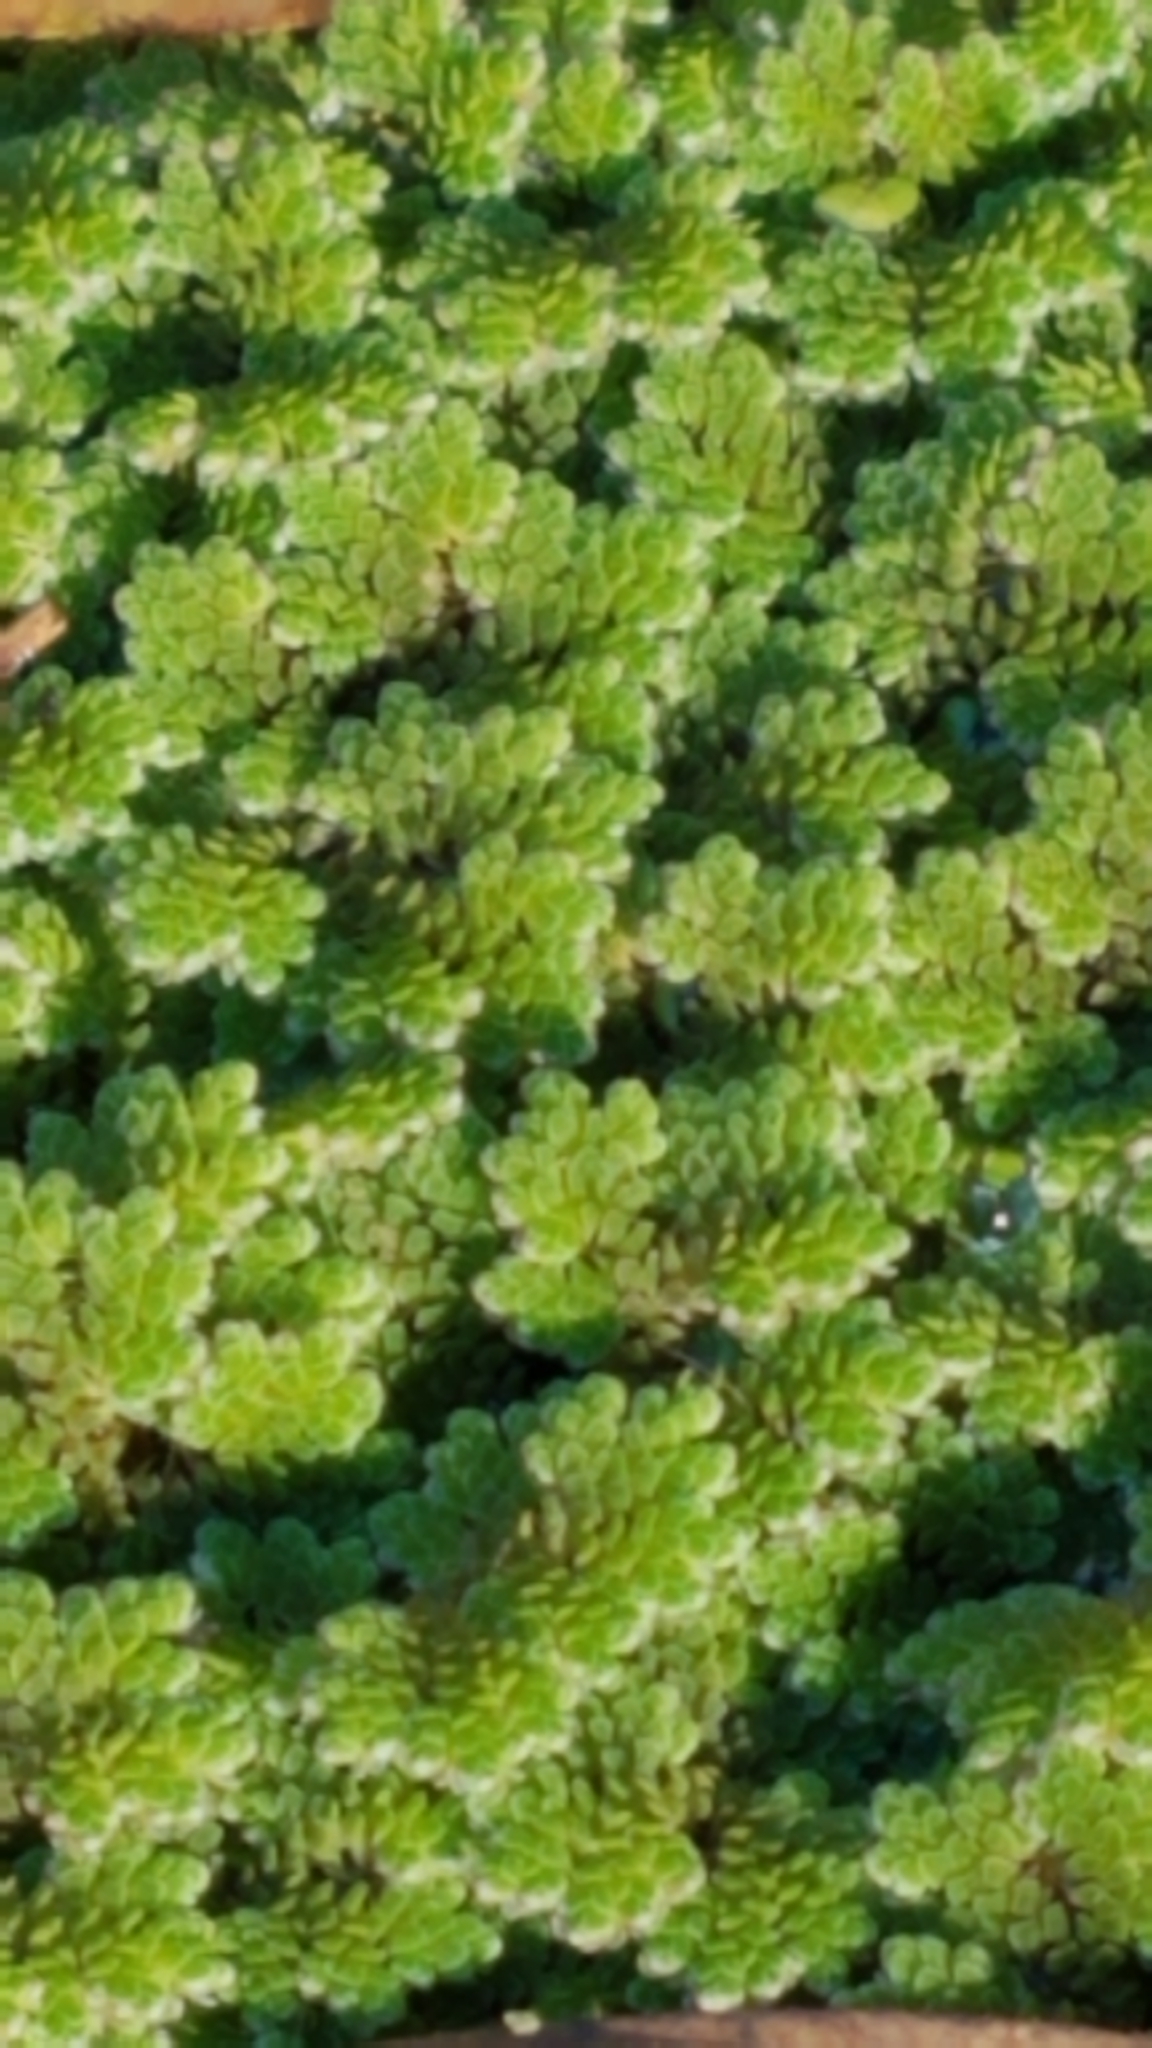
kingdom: Plantae
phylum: Tracheophyta
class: Polypodiopsida
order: Salviniales
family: Salviniaceae
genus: Azolla
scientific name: Azolla filiculoides
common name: Water fern
